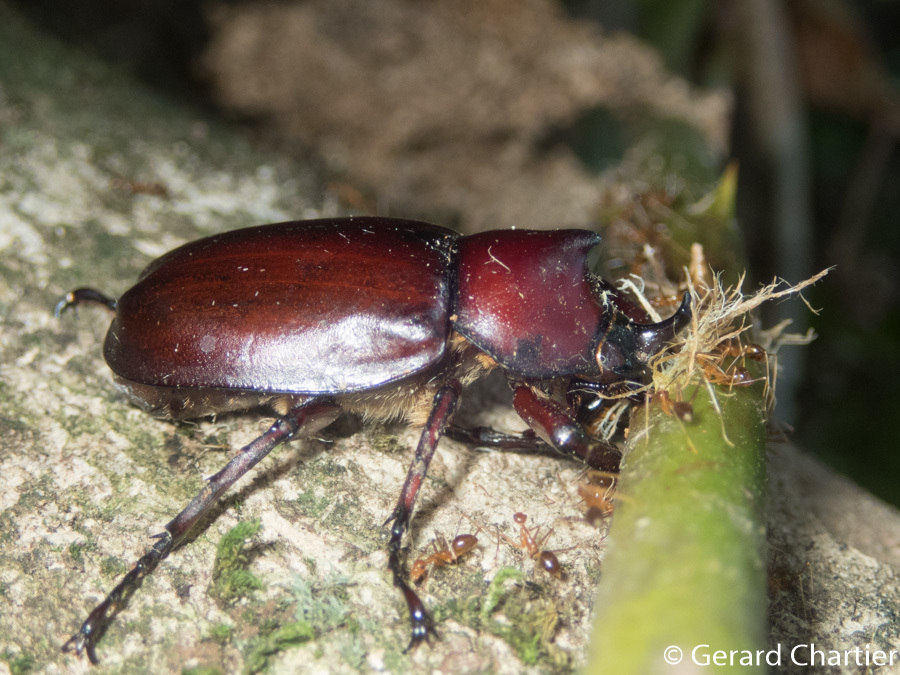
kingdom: Animalia
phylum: Arthropoda
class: Insecta
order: Coleoptera
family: Scarabaeidae
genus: Xylotrupes
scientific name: Xylotrupes socrates
